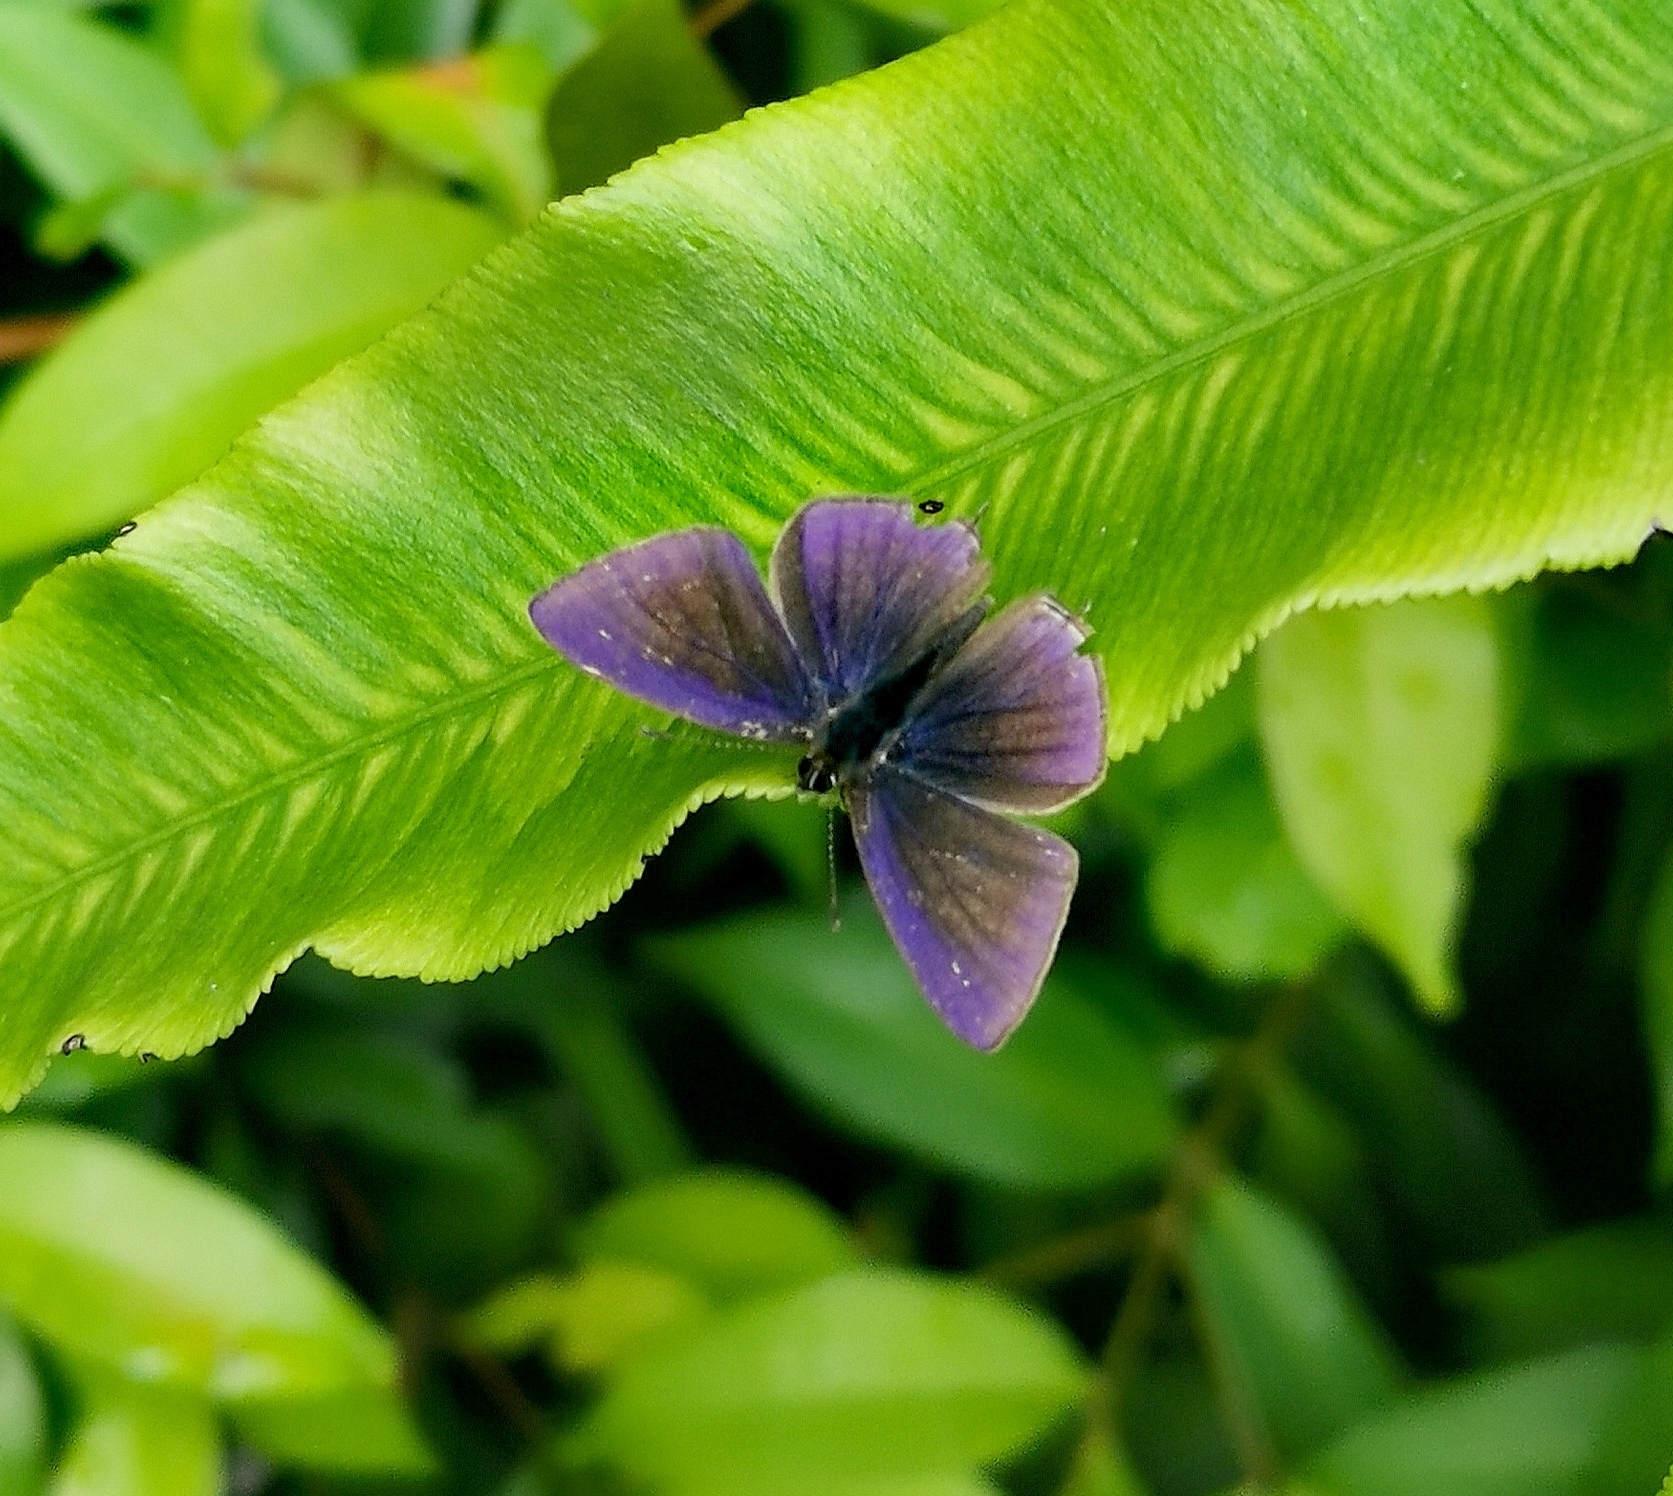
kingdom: Animalia
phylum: Arthropoda
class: Insecta
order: Lepidoptera
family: Lycaenidae
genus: Ionolyce
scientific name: Ionolyce helicon
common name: Pointed line blue
